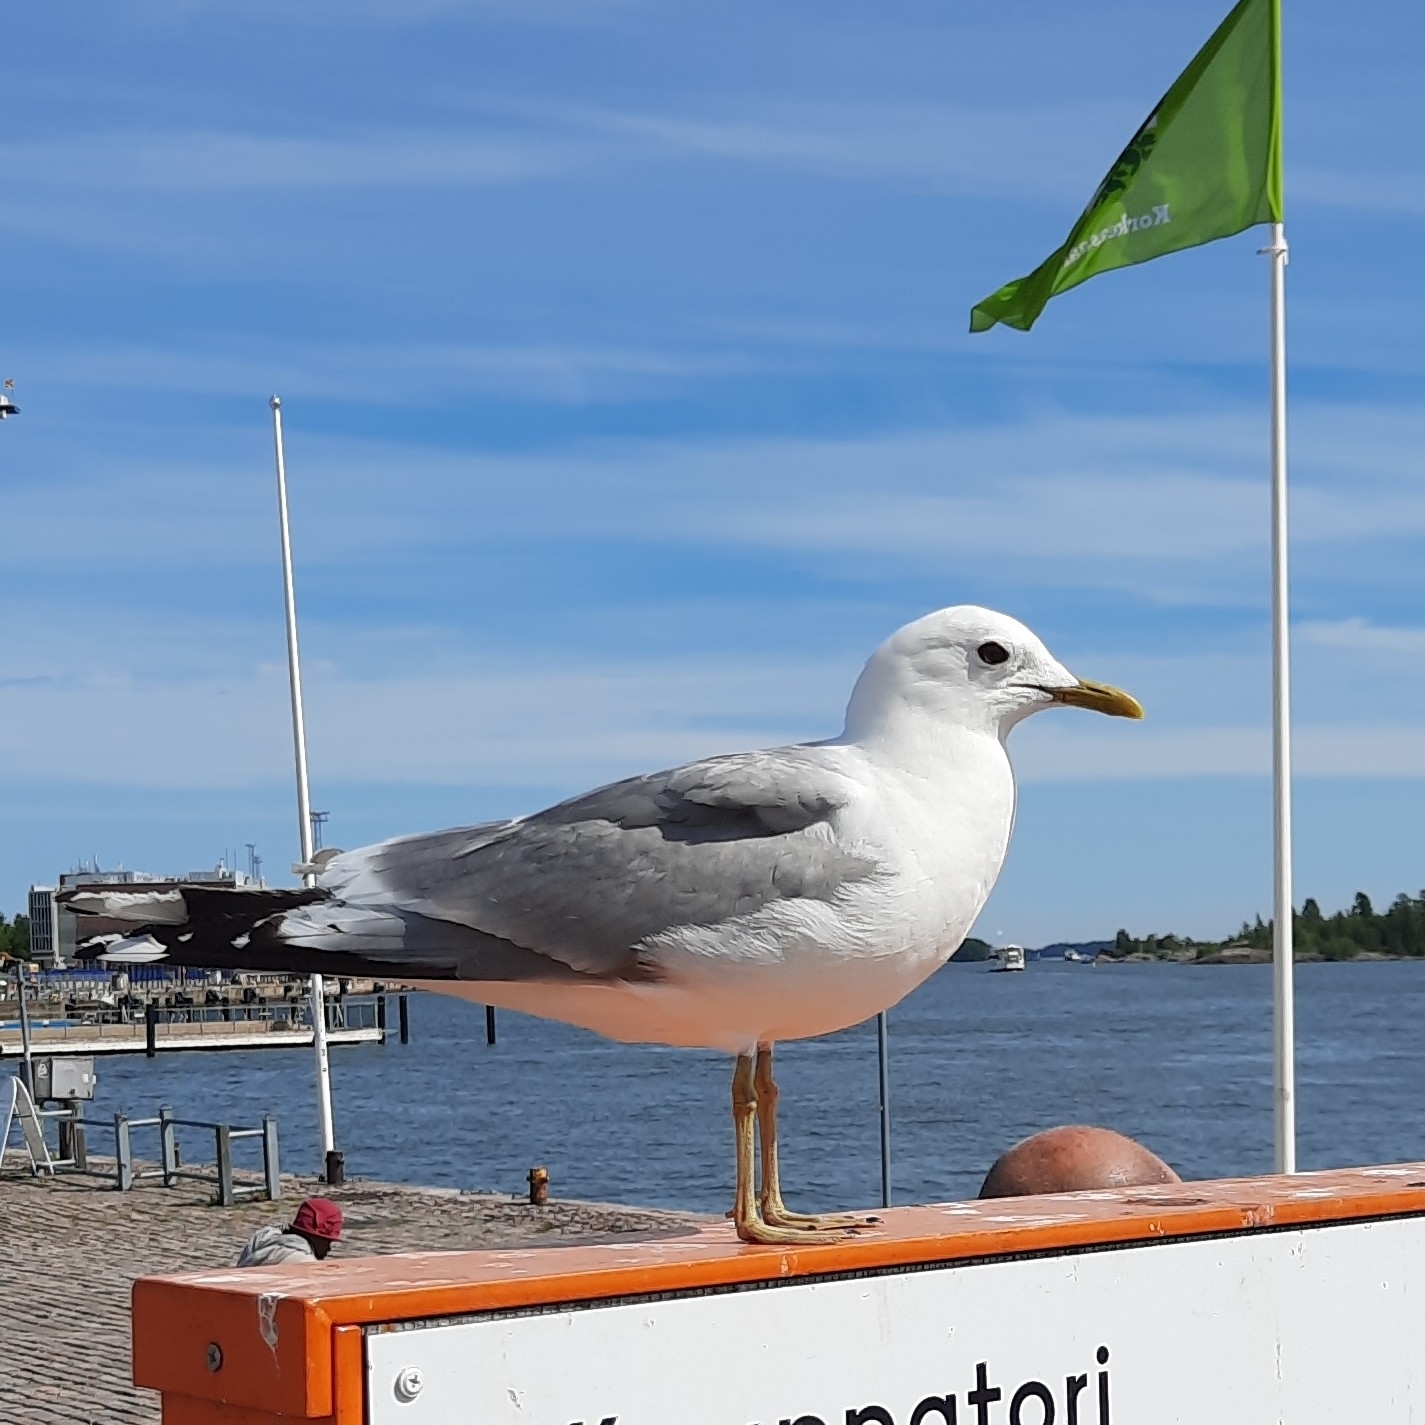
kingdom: Animalia
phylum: Chordata
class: Aves
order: Charadriiformes
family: Laridae
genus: Larus
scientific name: Larus canus
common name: Mew gull
